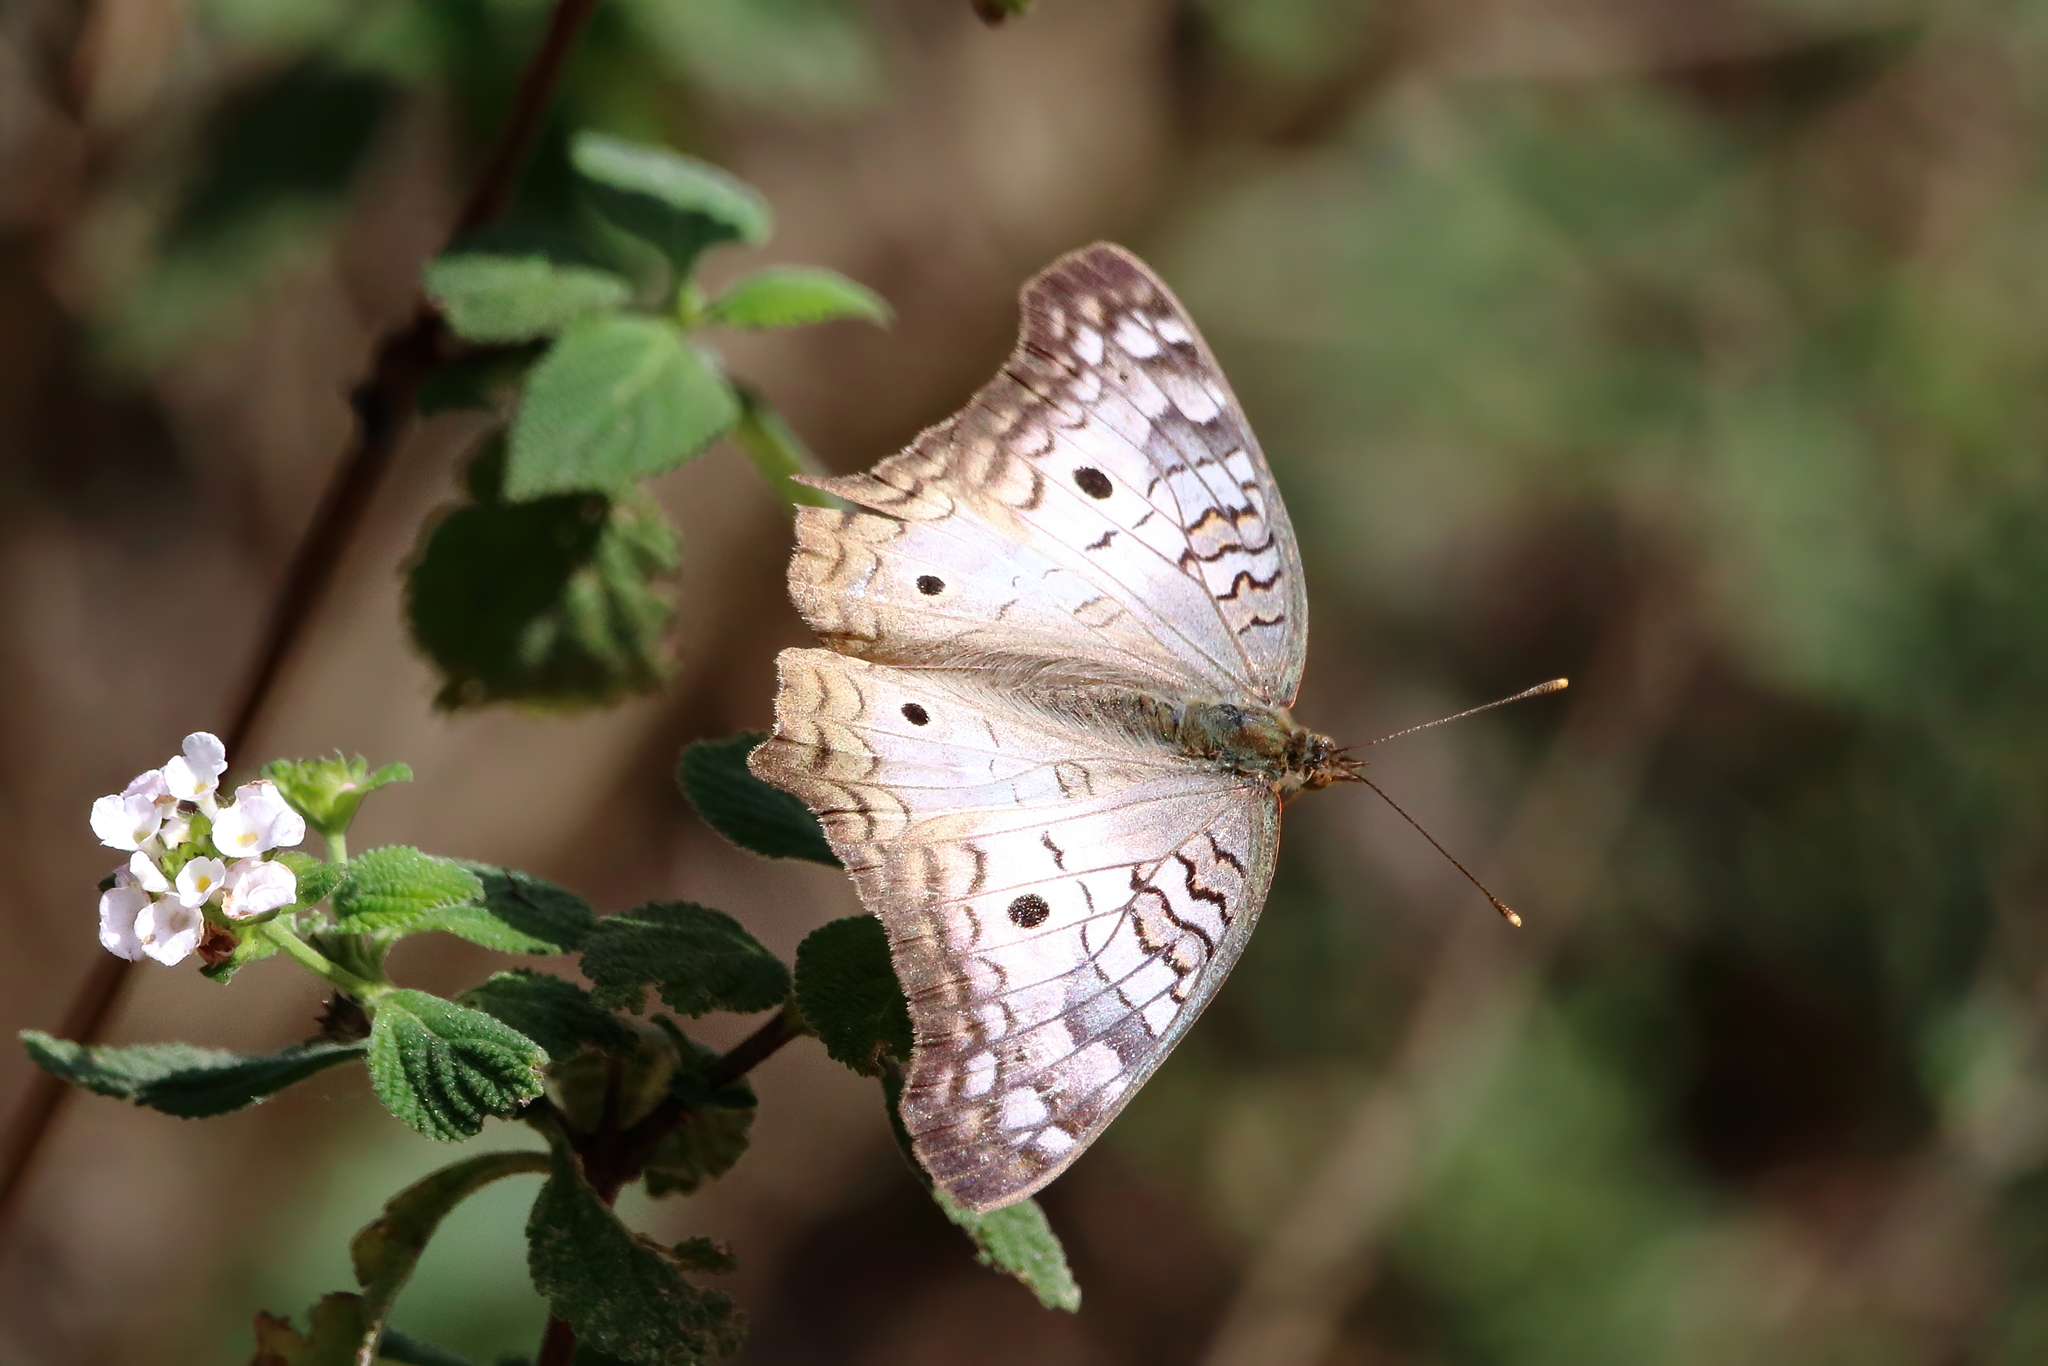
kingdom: Animalia
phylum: Arthropoda
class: Insecta
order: Lepidoptera
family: Nymphalidae
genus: Anartia
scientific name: Anartia jatrophae
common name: White peacock
